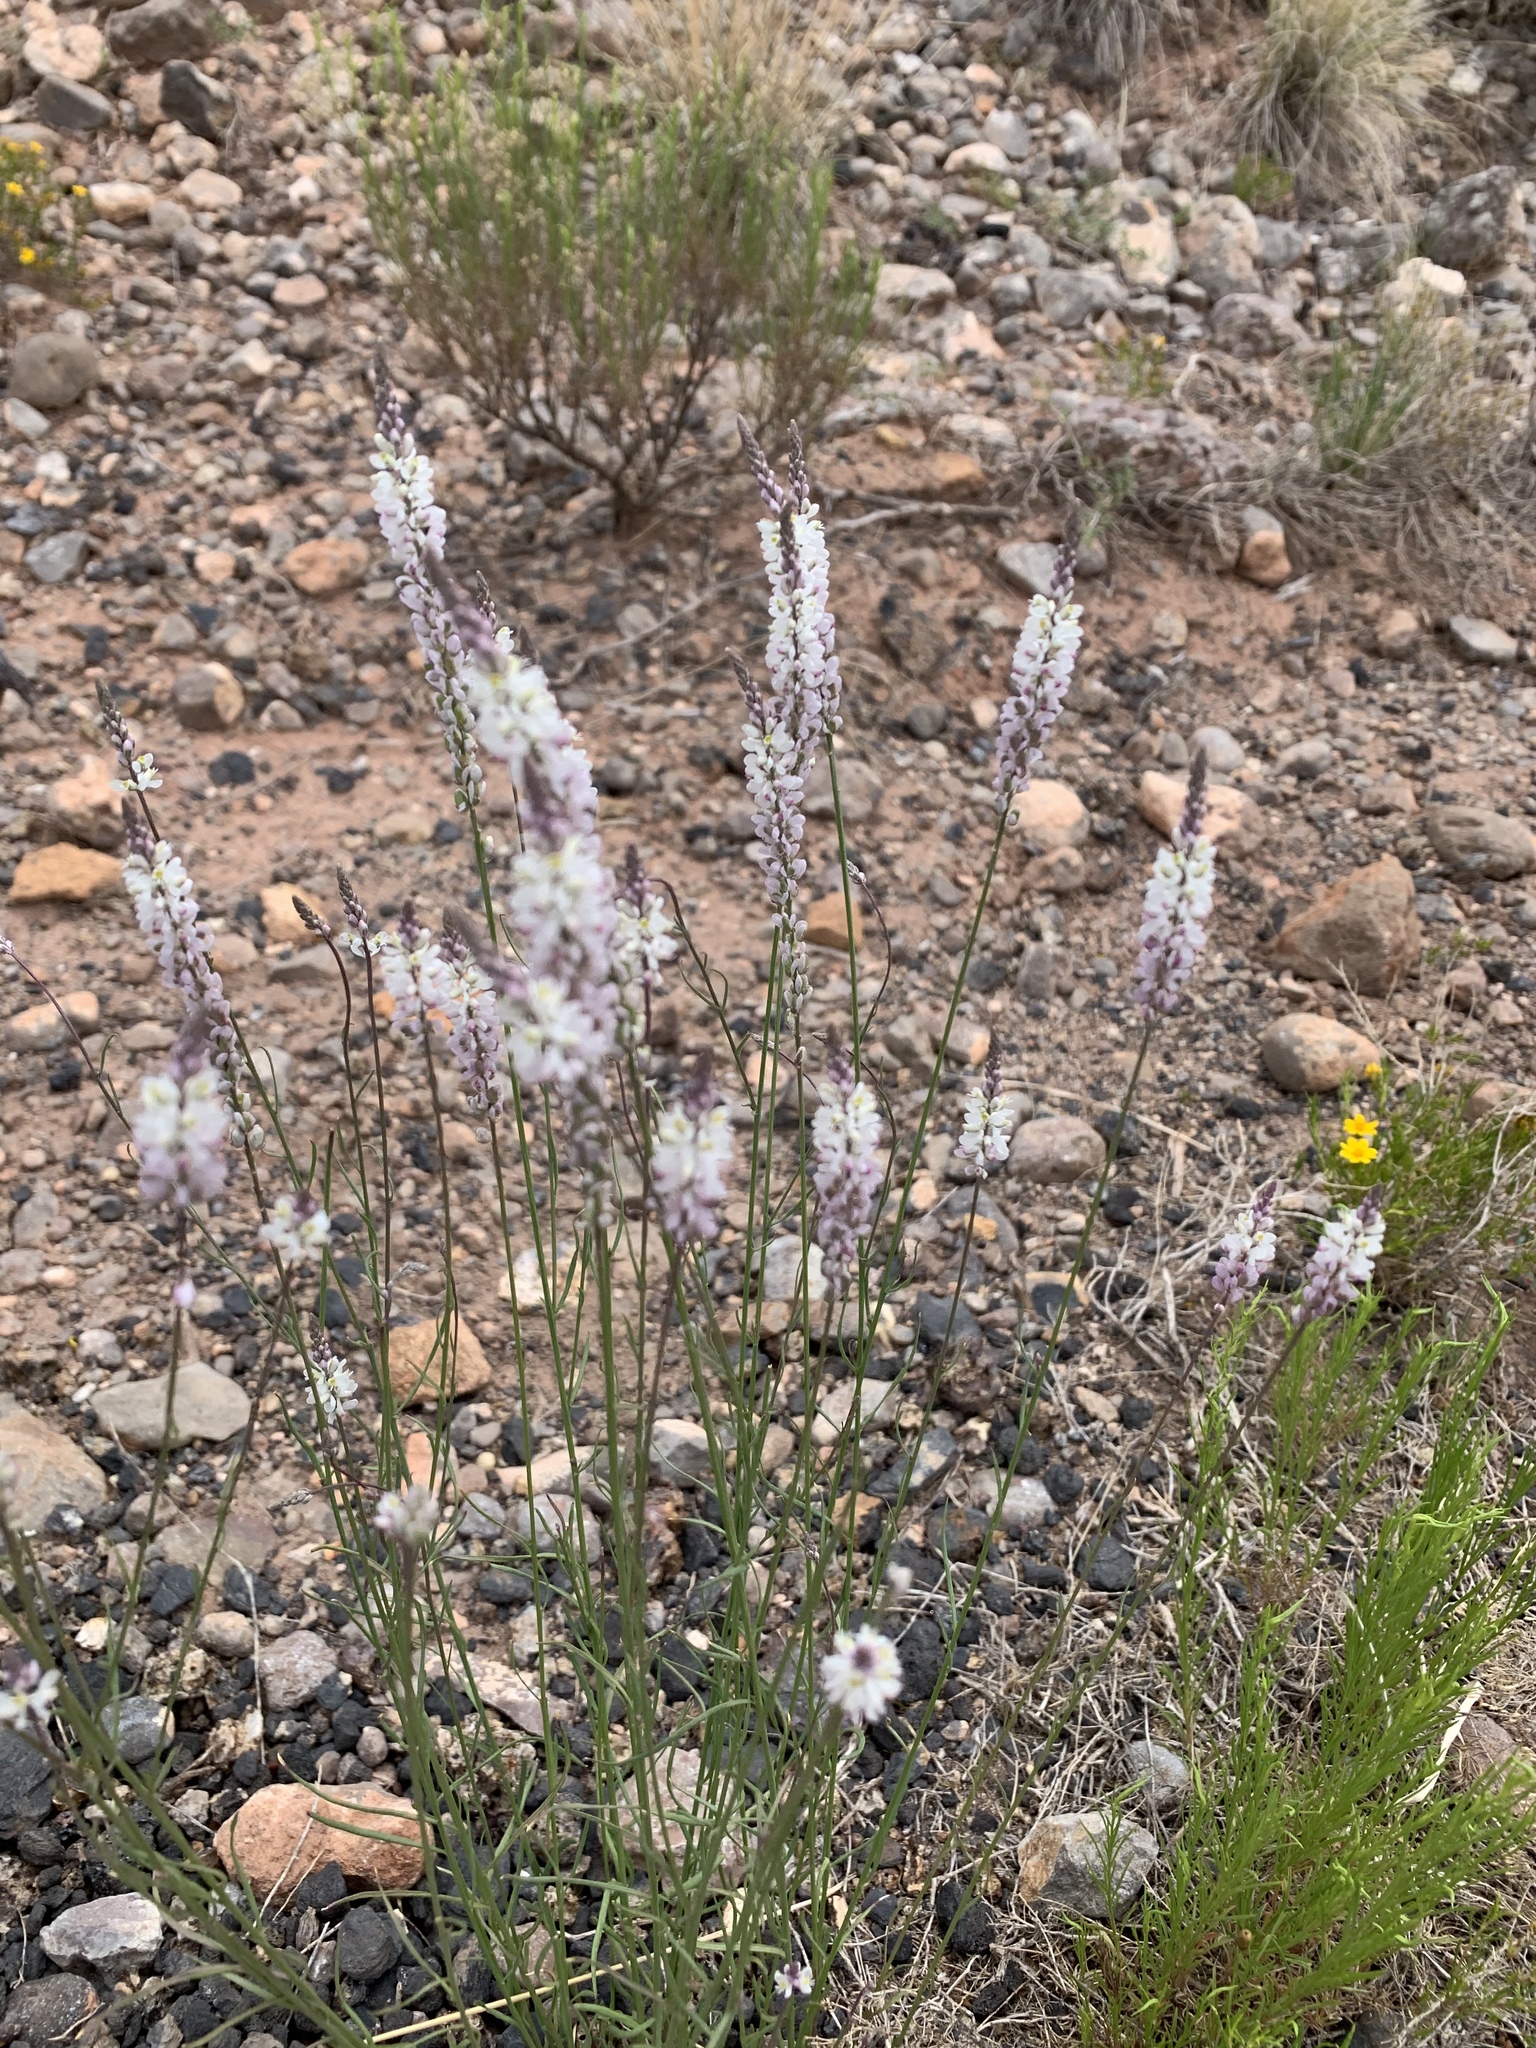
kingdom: Plantae
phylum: Tracheophyta
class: Magnoliopsida
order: Fabales
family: Polygalaceae
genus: Polygala
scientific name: Polygala alba
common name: White milkwort
